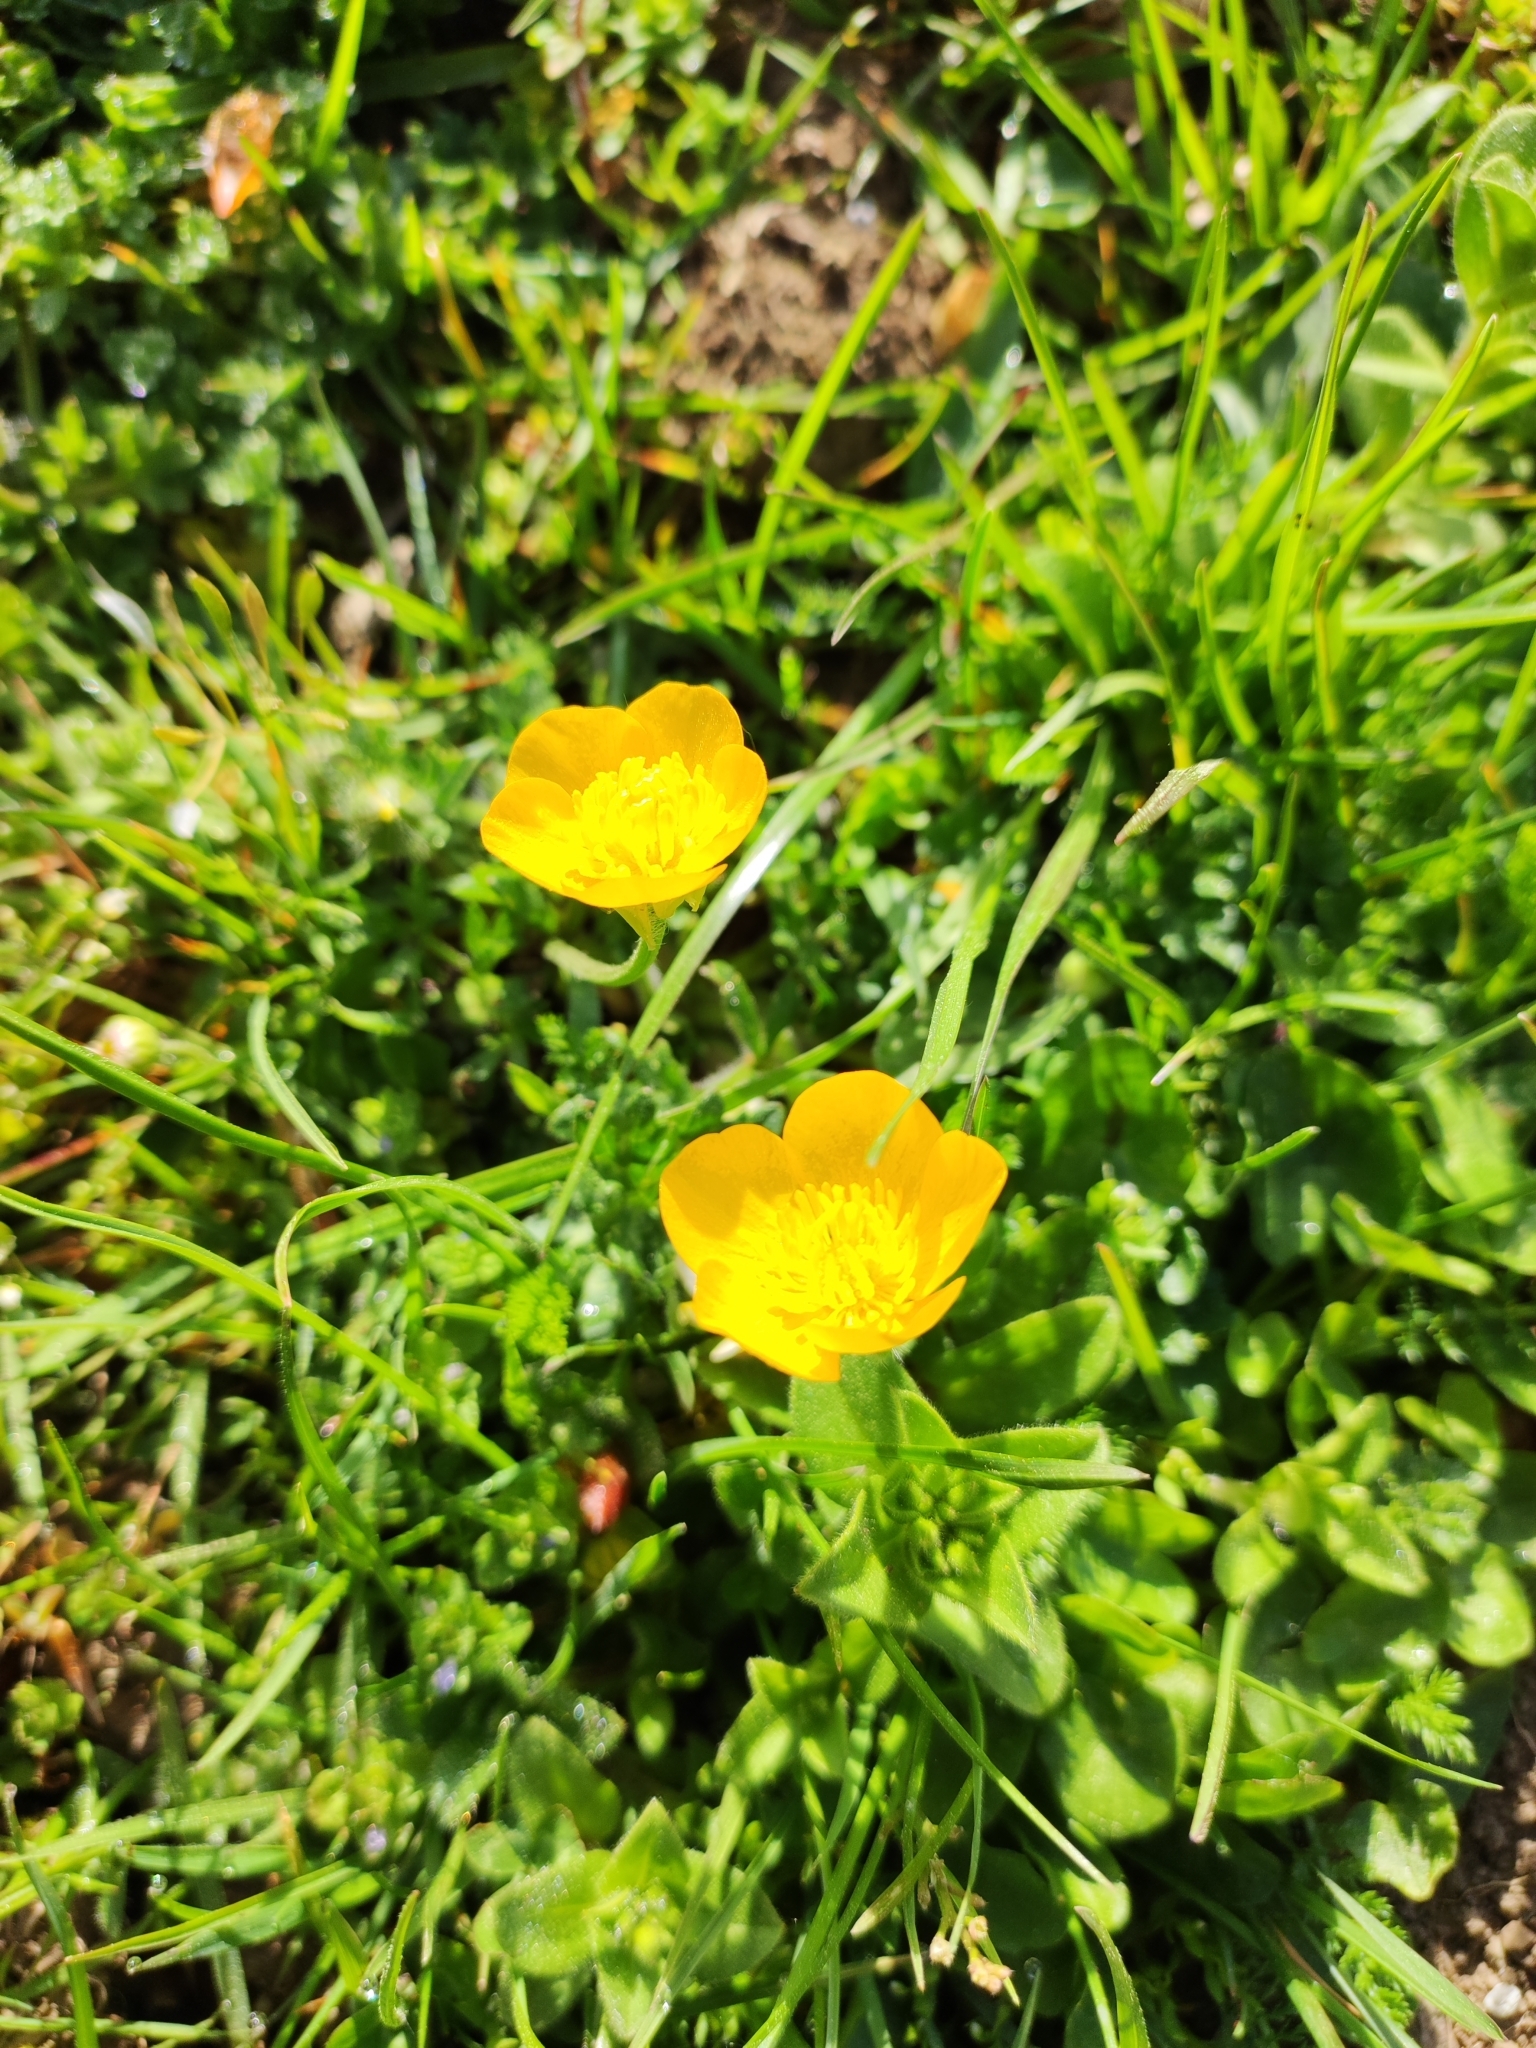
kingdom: Plantae
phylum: Tracheophyta
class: Magnoliopsida
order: Ranunculales
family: Ranunculaceae
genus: Ranunculus
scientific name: Ranunculus bulbosus
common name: Bulbous buttercup
